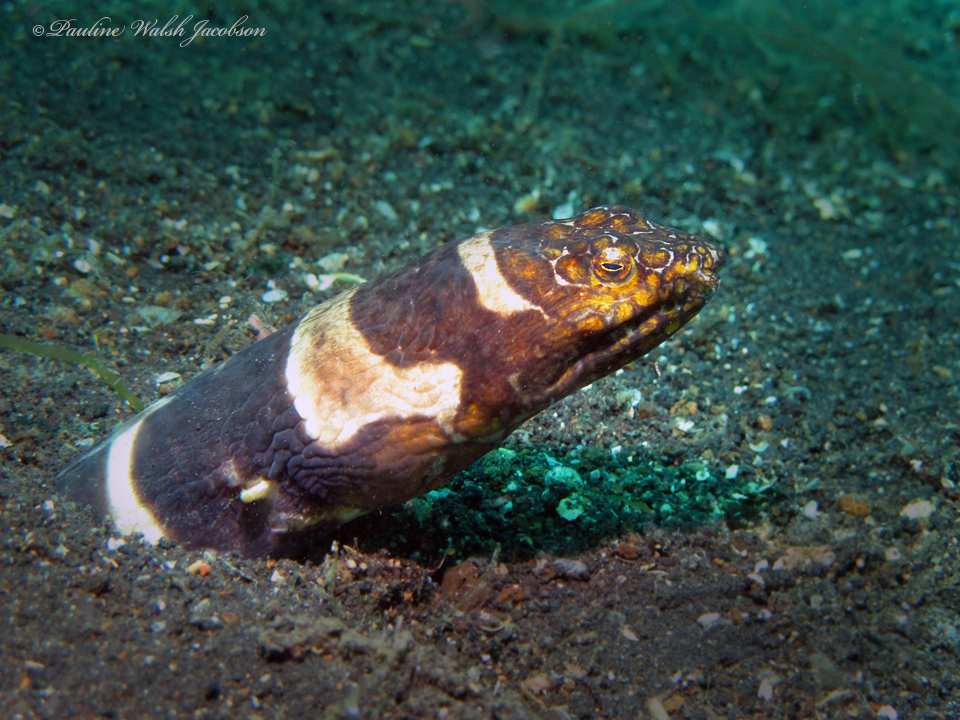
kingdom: Animalia
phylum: Chordata
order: Anguilliformes
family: Ophichthidae
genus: Ophichthus
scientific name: Ophichthus bonaparti
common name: Napoleon snake eel
